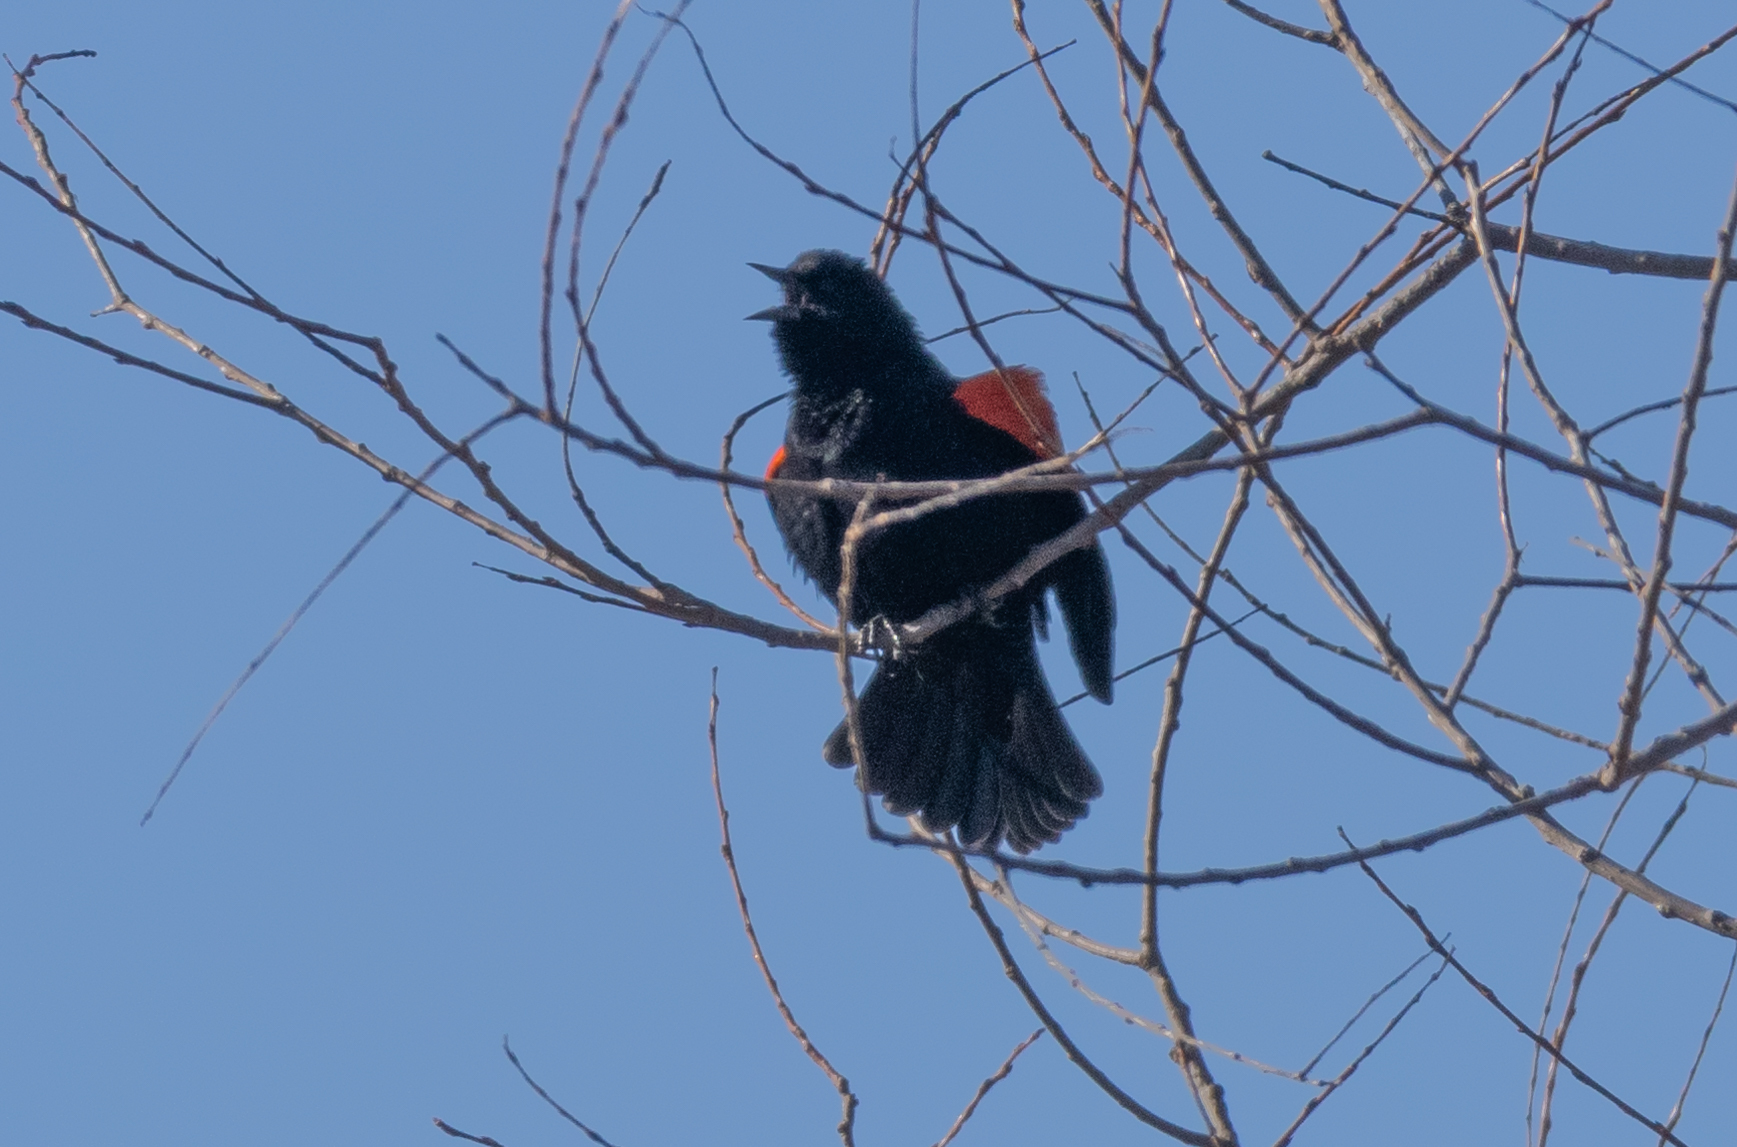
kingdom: Animalia
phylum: Chordata
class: Aves
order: Passeriformes
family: Icteridae
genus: Agelaius
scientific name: Agelaius phoeniceus
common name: Red-winged blackbird
